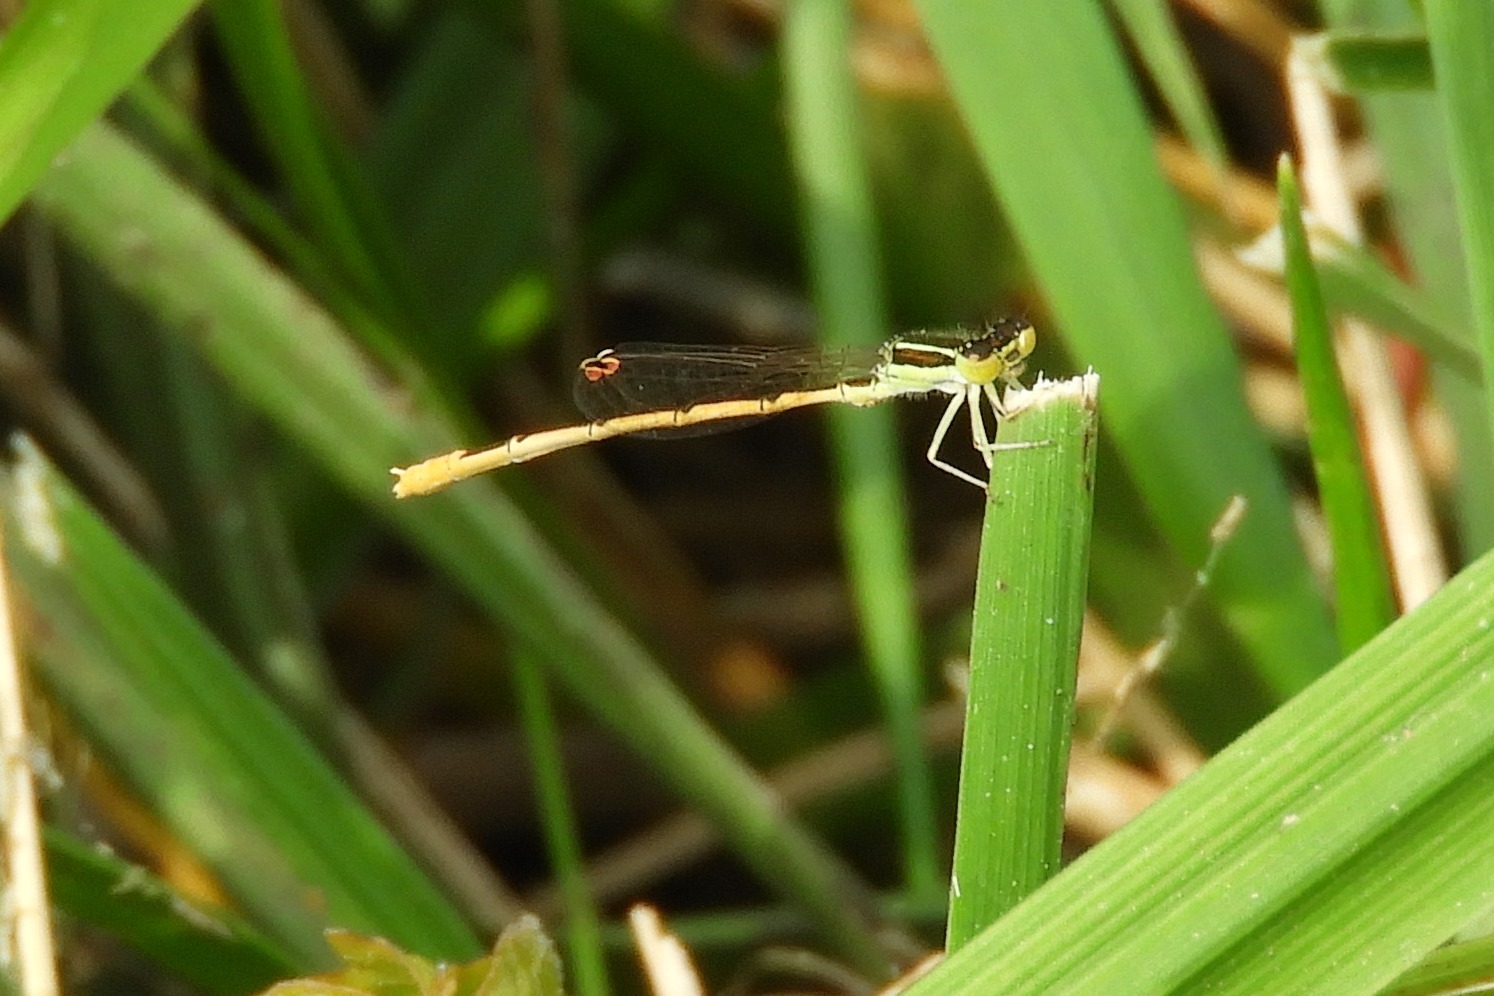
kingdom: Animalia
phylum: Arthropoda
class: Insecta
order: Odonata
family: Coenagrionidae
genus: Ischnura
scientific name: Ischnura hastata
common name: Citrine forktail
